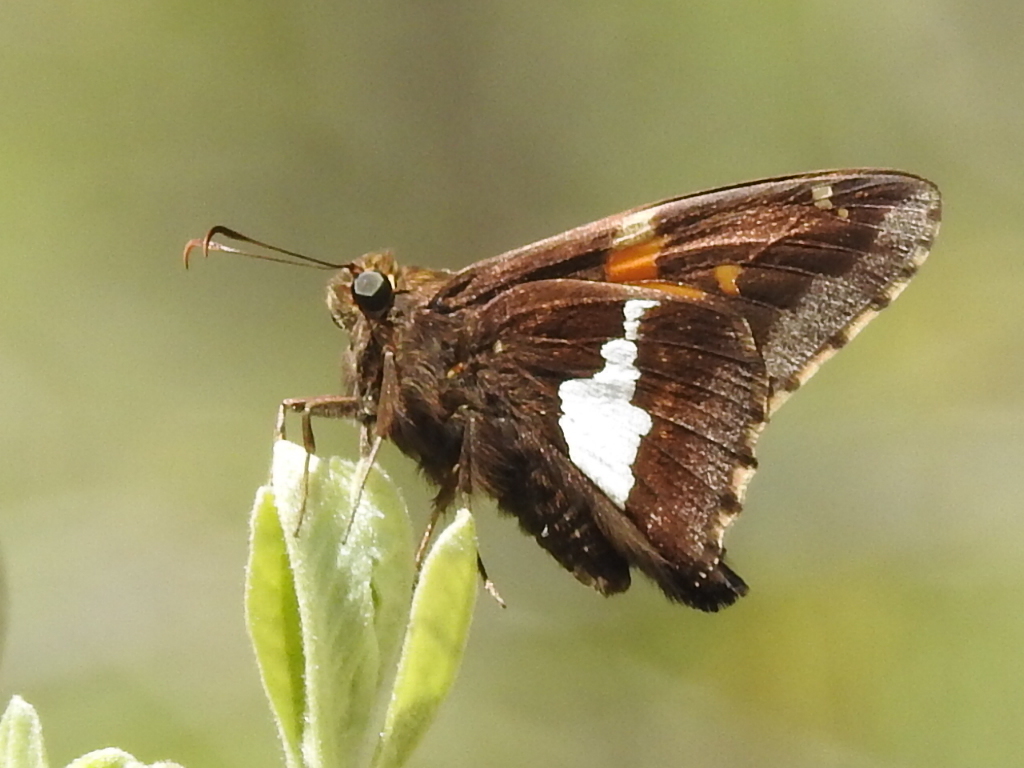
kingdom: Animalia
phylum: Arthropoda
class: Insecta
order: Lepidoptera
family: Hesperiidae
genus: Epargyreus
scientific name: Epargyreus clarus
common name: Silver-spotted skipper
